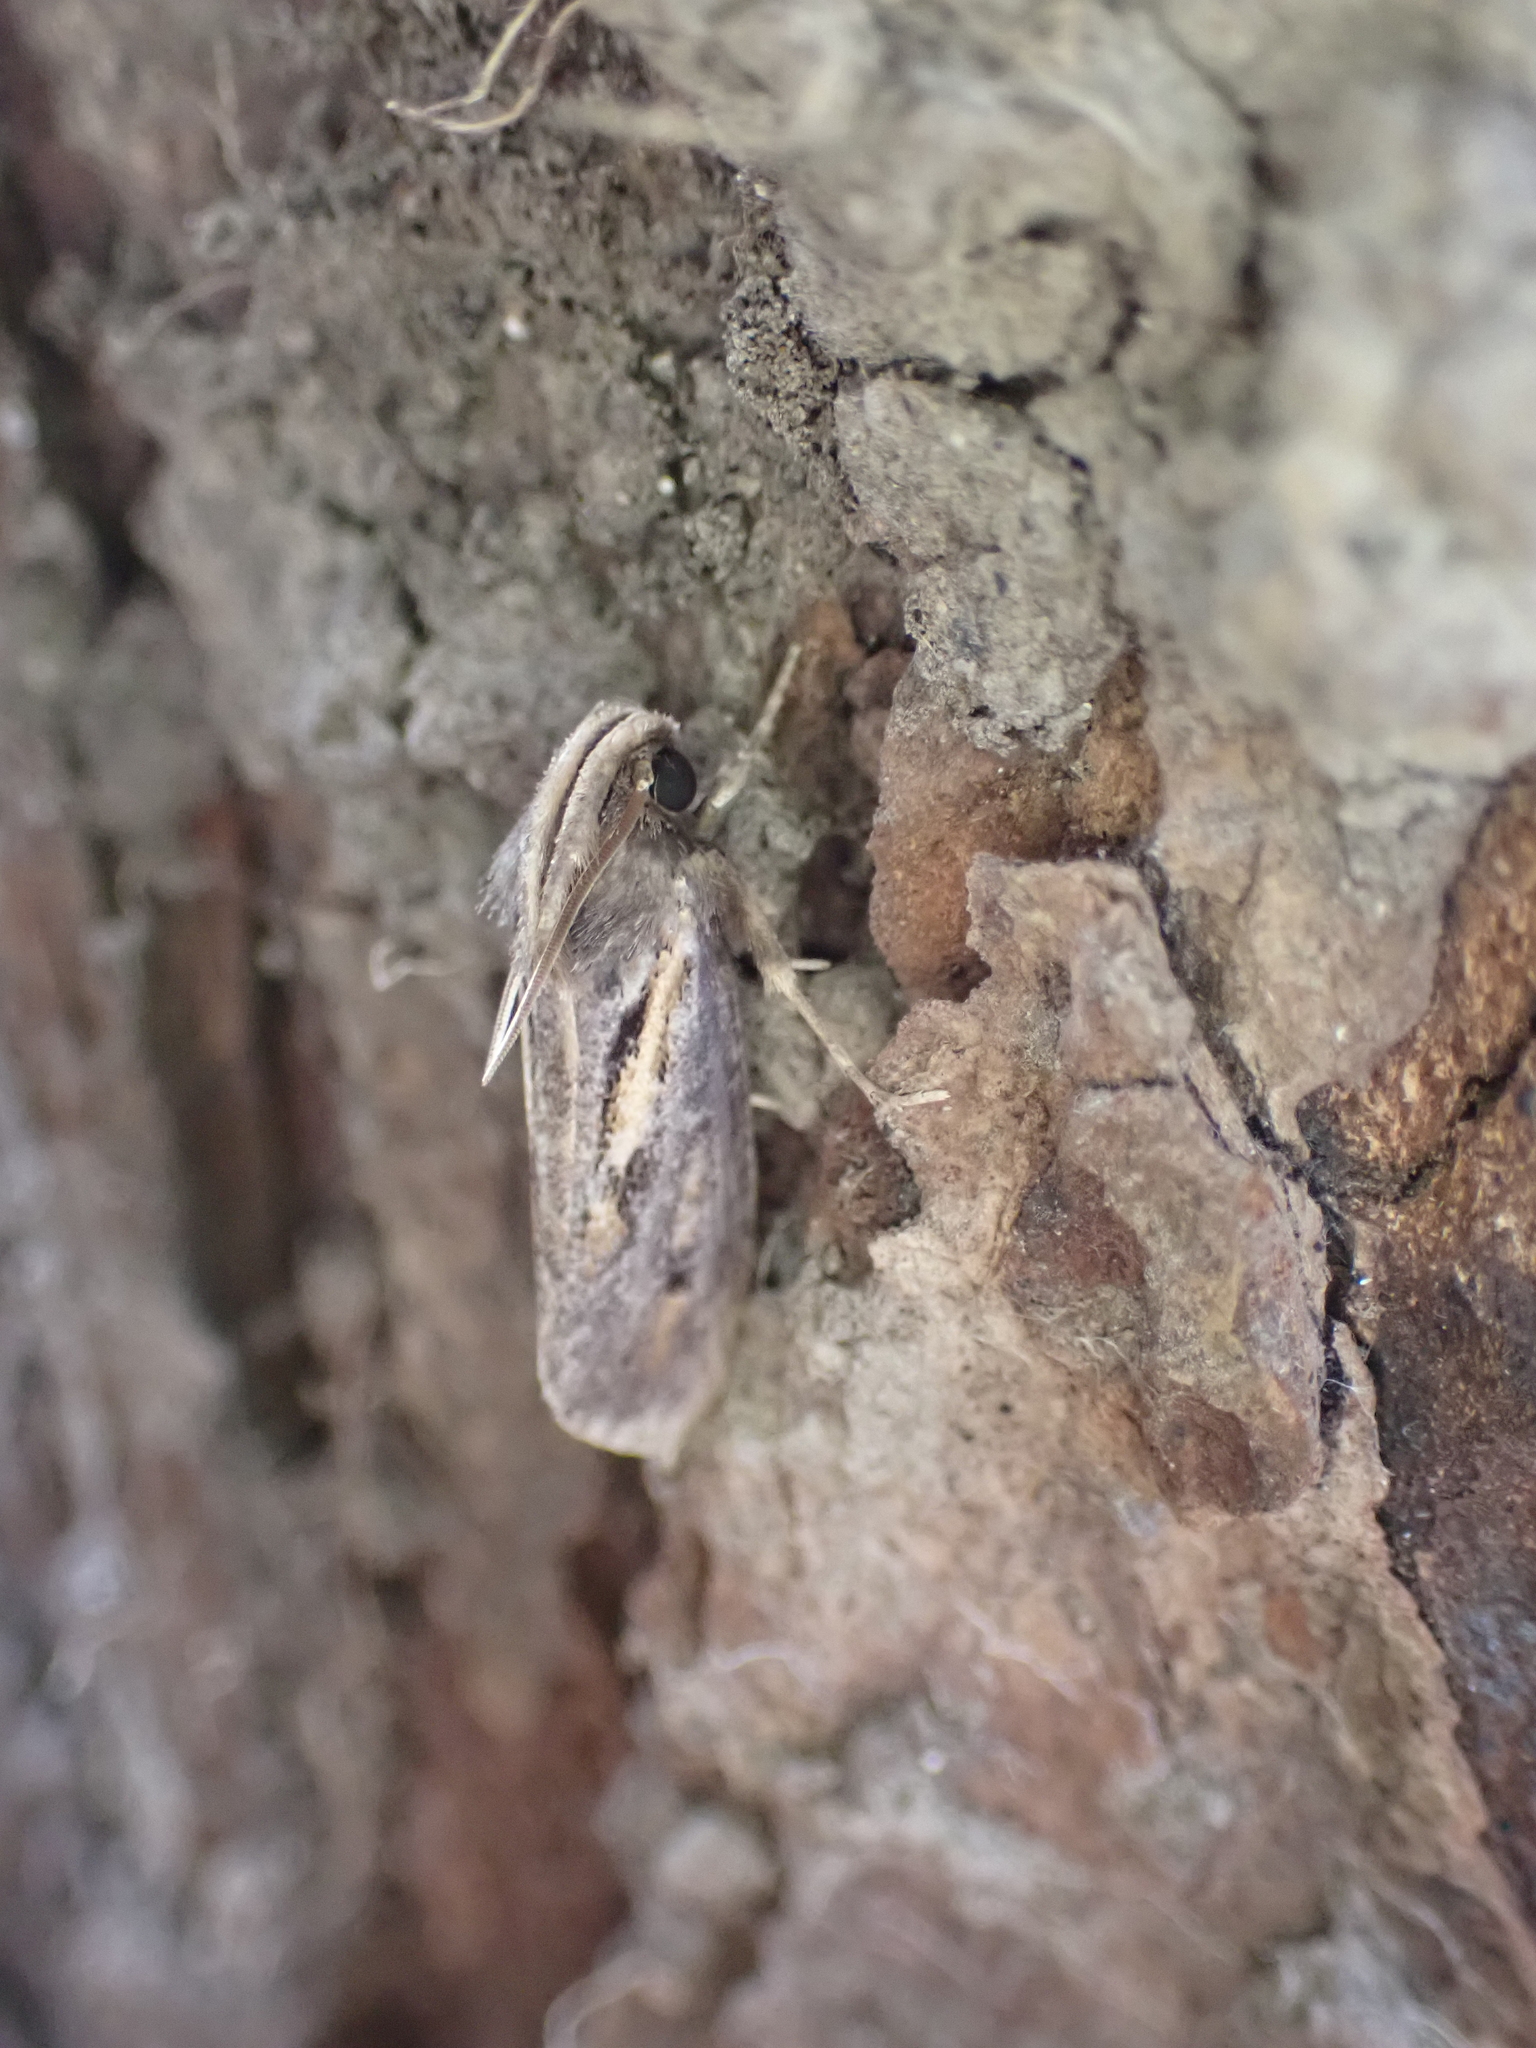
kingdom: Animalia
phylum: Arthropoda
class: Insecta
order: Lepidoptera
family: Tineidae
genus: Acrolophus
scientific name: Acrolophus popeanella
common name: Clemens' grass tubeworm moth
